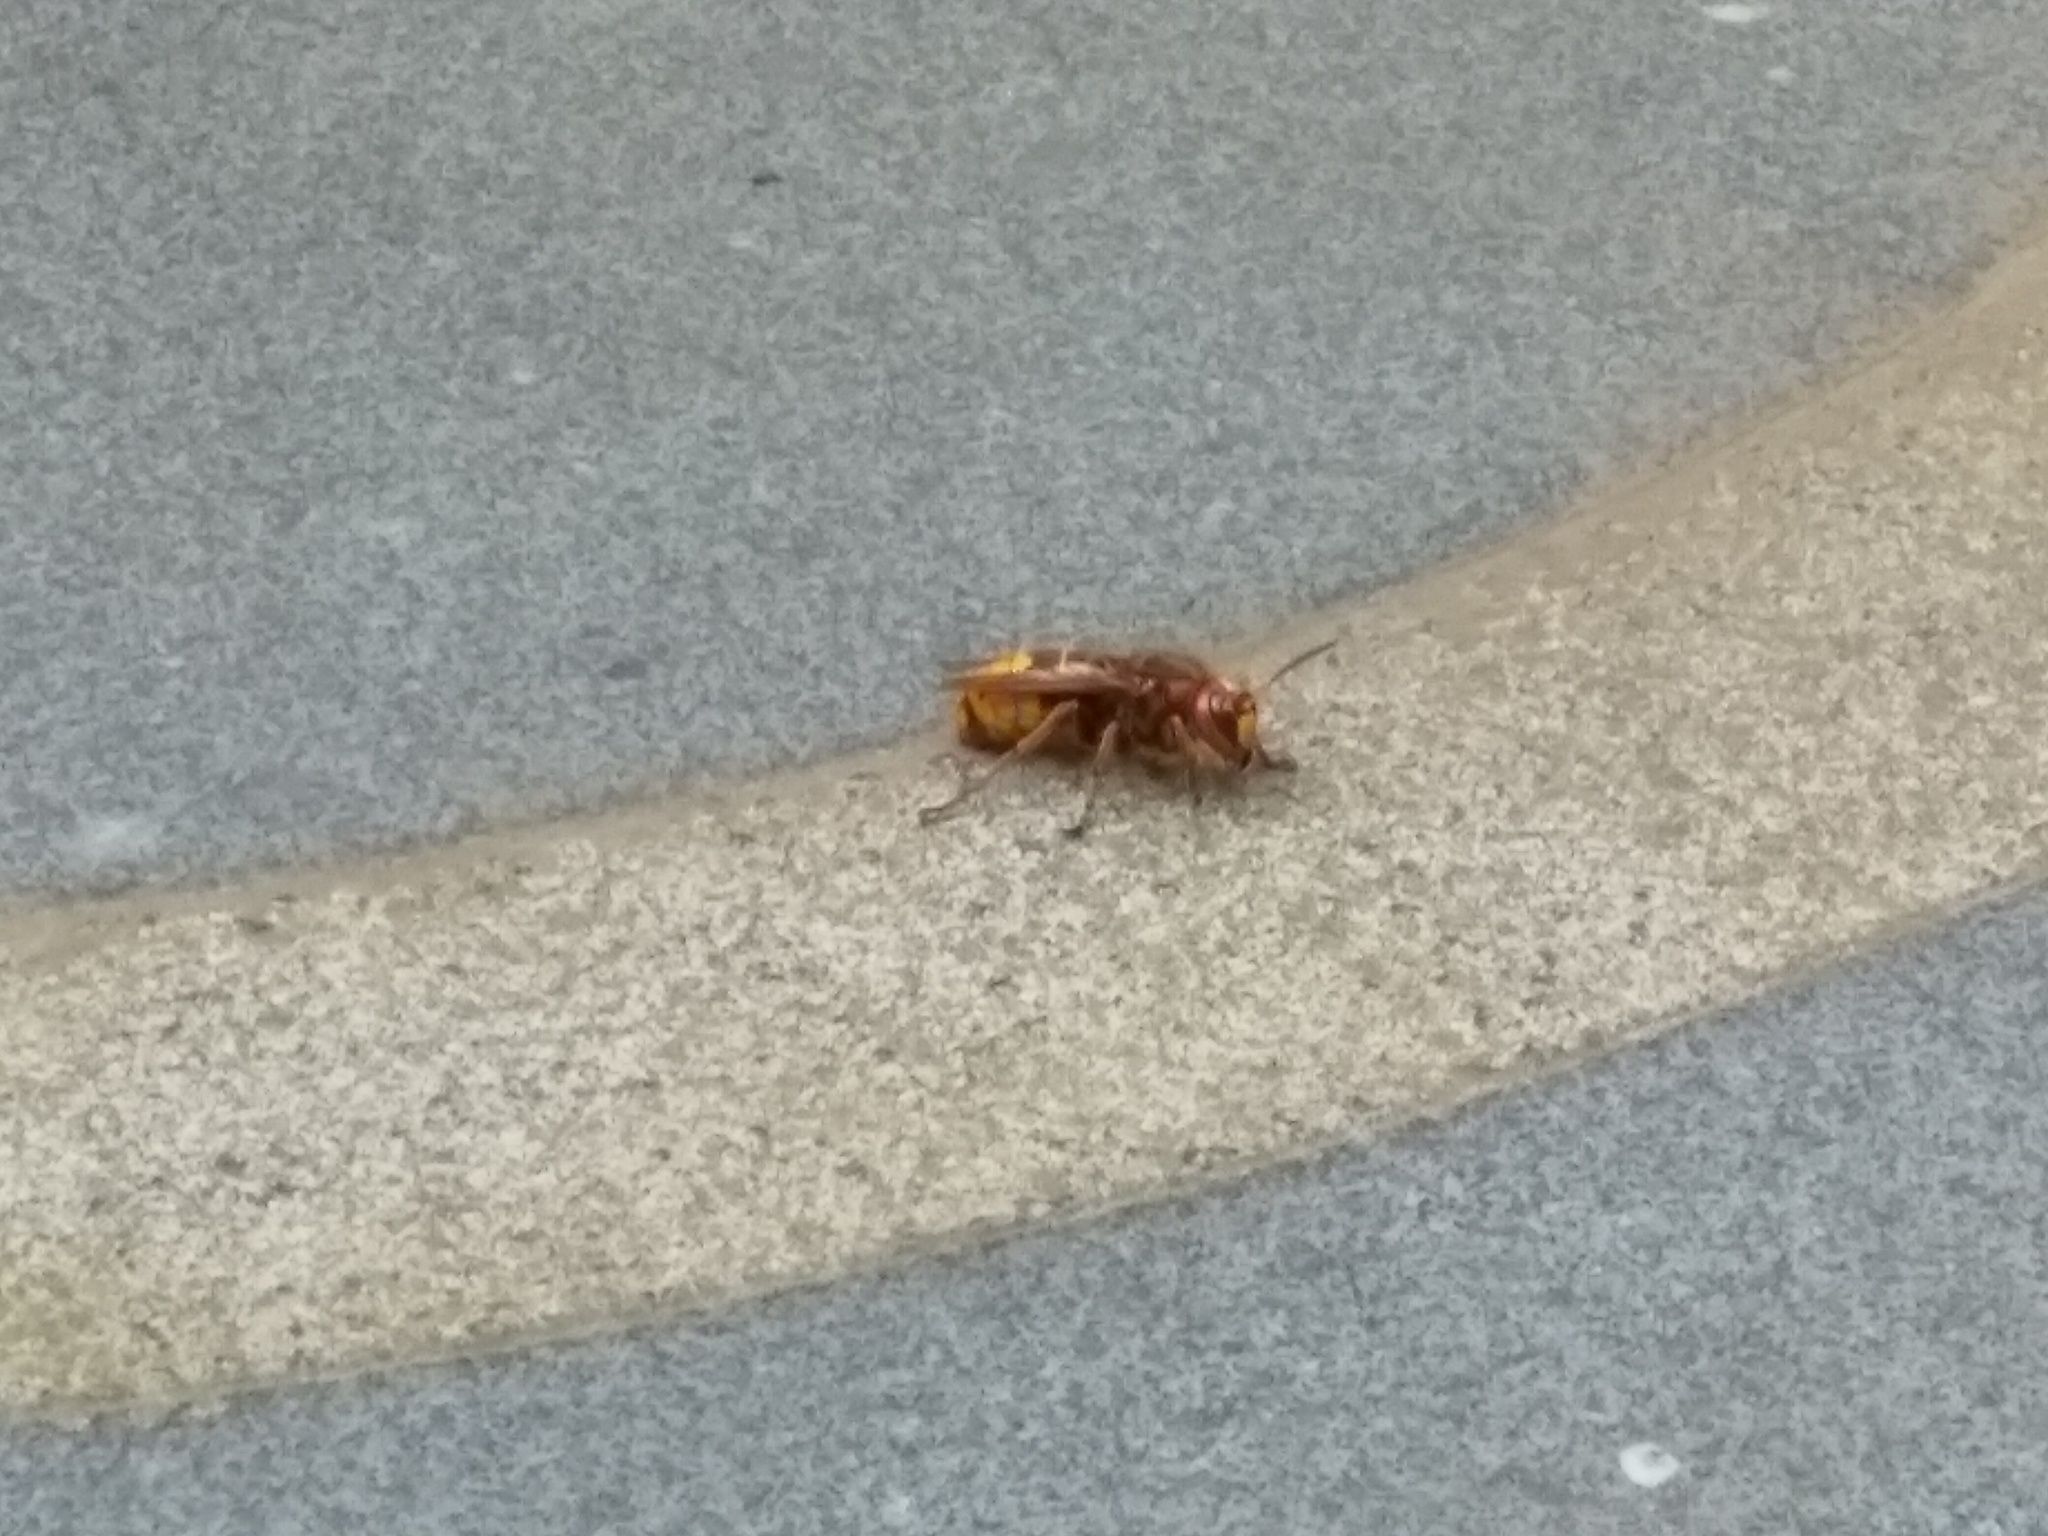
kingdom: Animalia
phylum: Arthropoda
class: Insecta
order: Hymenoptera
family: Vespidae
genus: Vespa
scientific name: Vespa crabro
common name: Hornet
